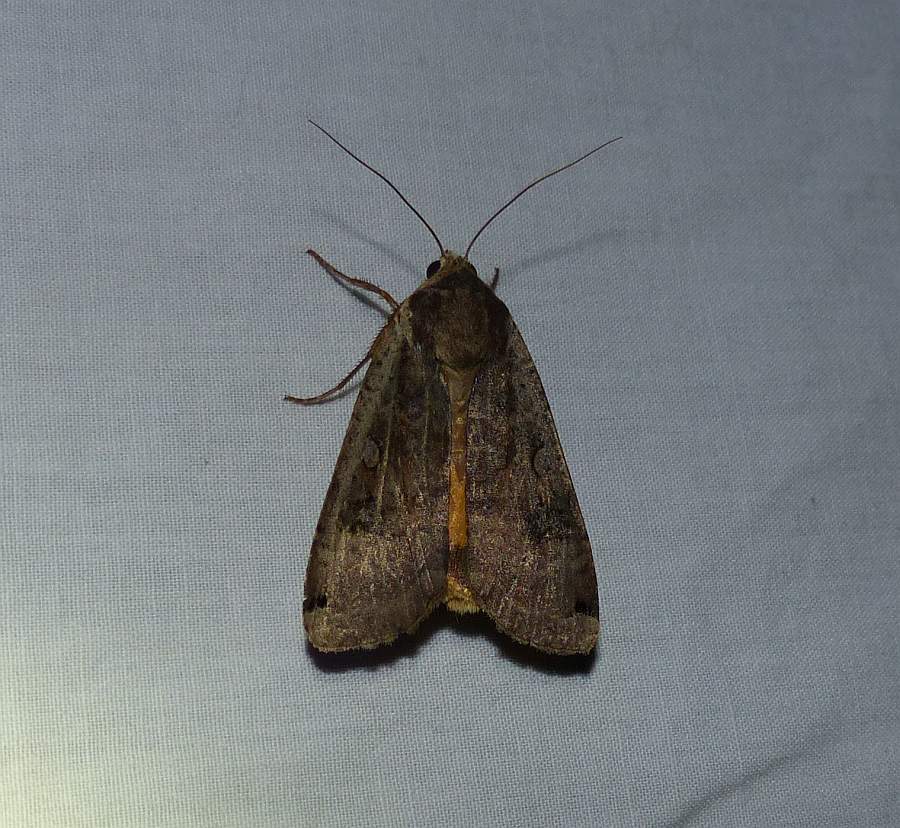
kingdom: Animalia
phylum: Arthropoda
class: Insecta
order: Lepidoptera
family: Noctuidae
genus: Noctua
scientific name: Noctua pronuba
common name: Large yellow underwing
